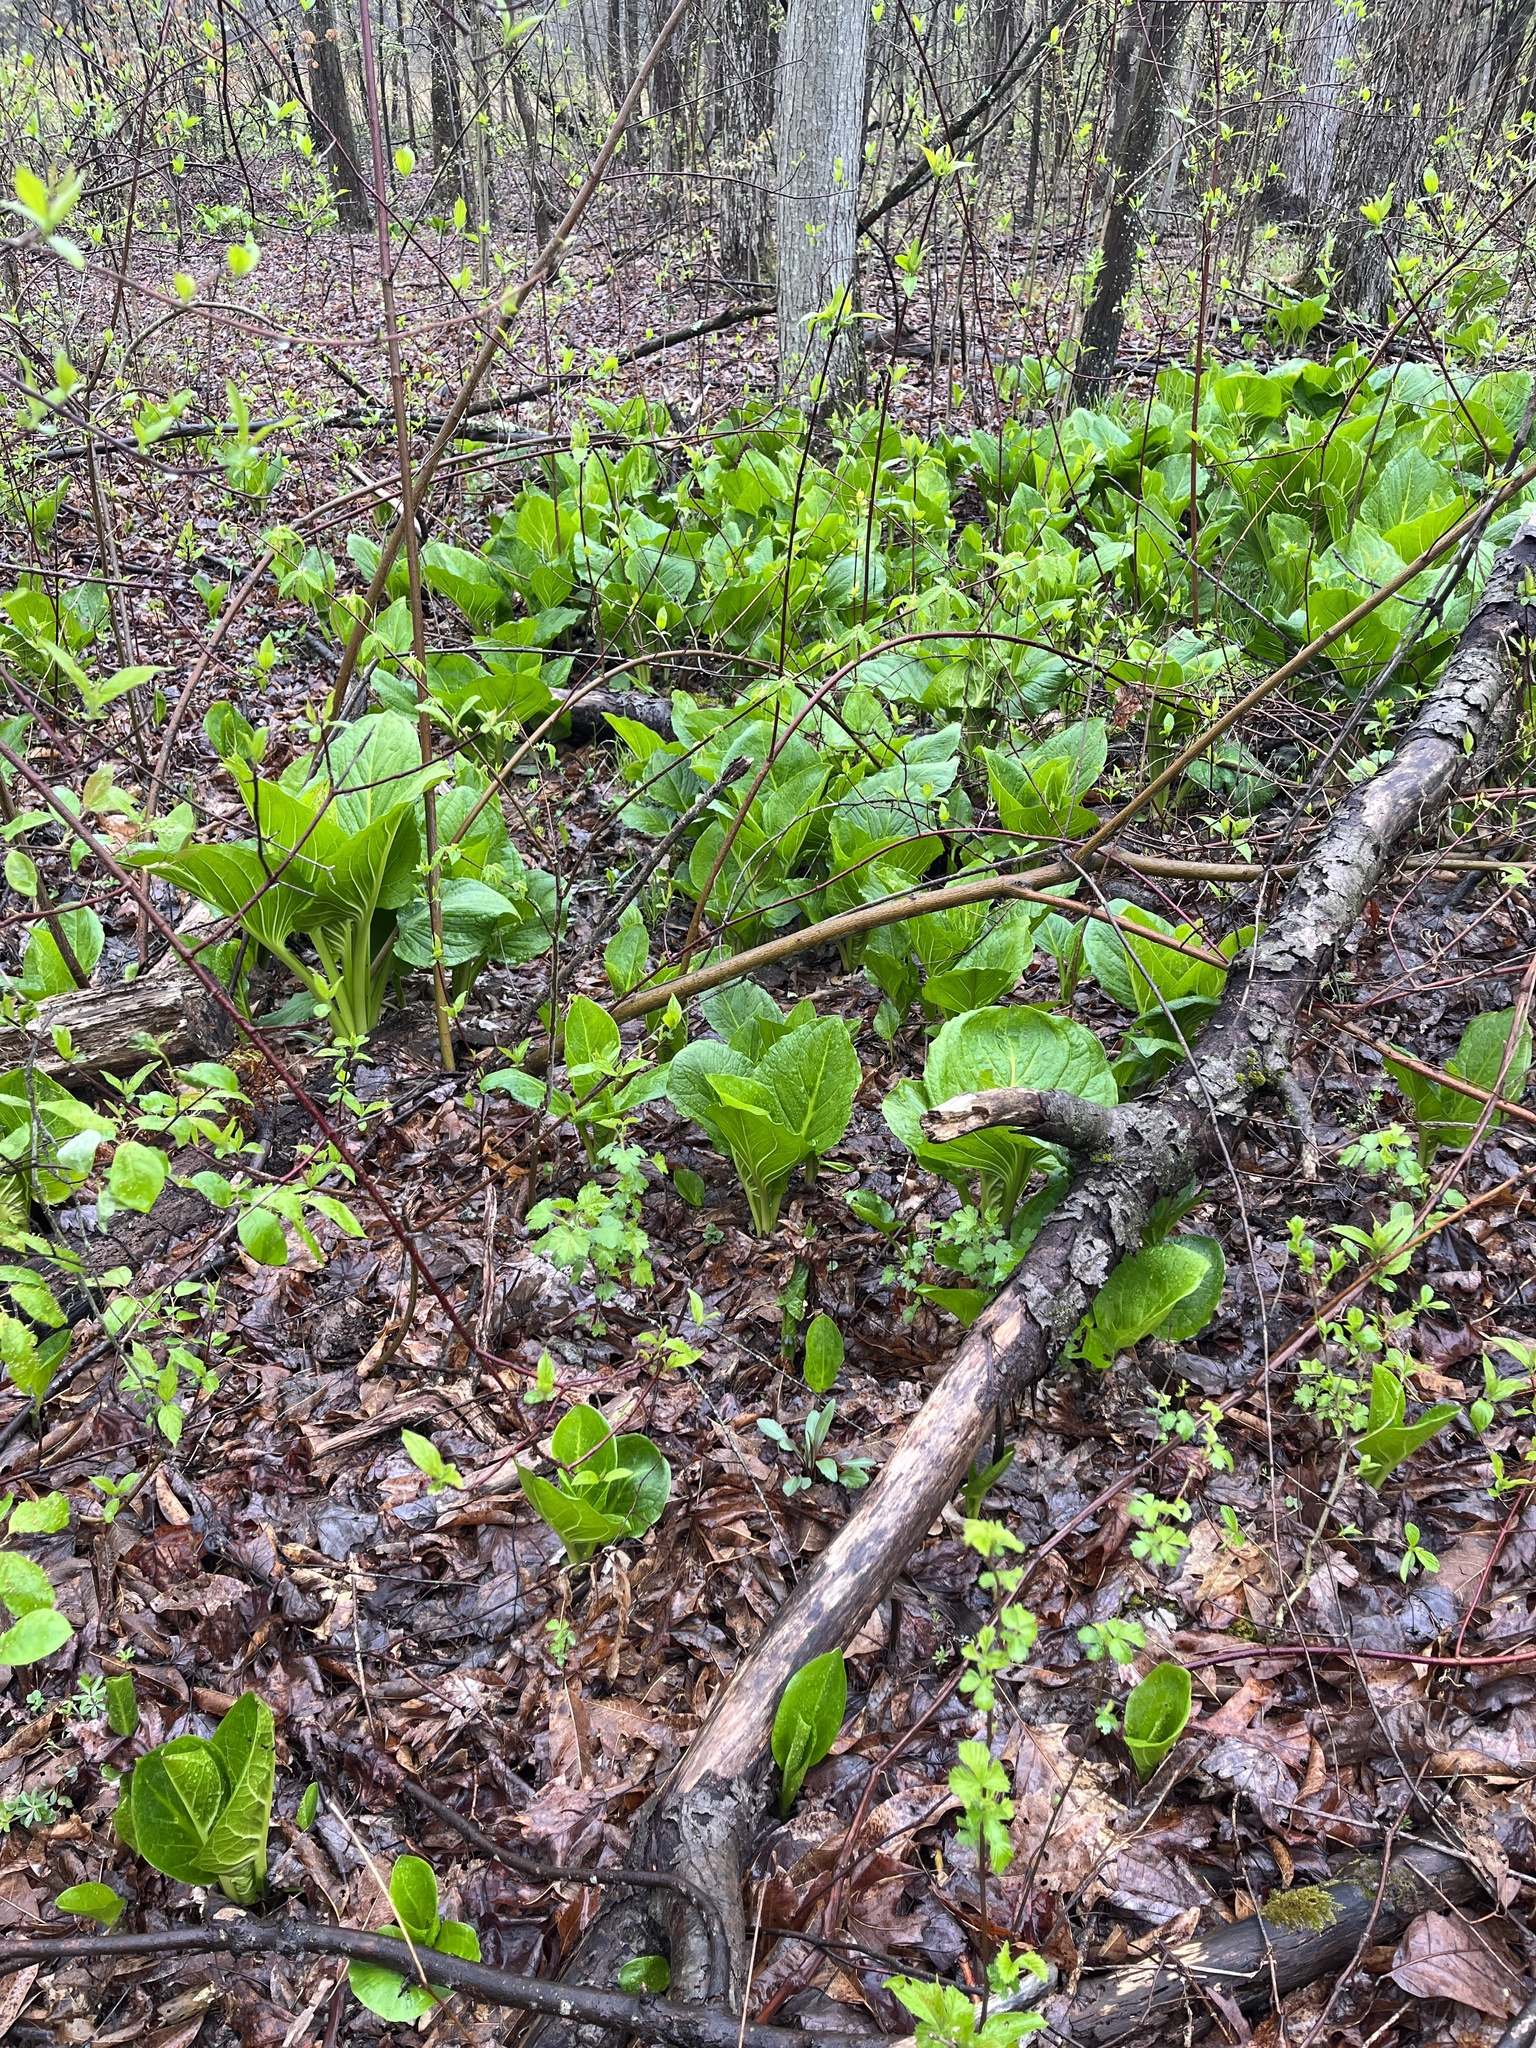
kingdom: Plantae
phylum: Tracheophyta
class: Liliopsida
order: Alismatales
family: Araceae
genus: Symplocarpus
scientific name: Symplocarpus foetidus
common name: Eastern skunk cabbage
